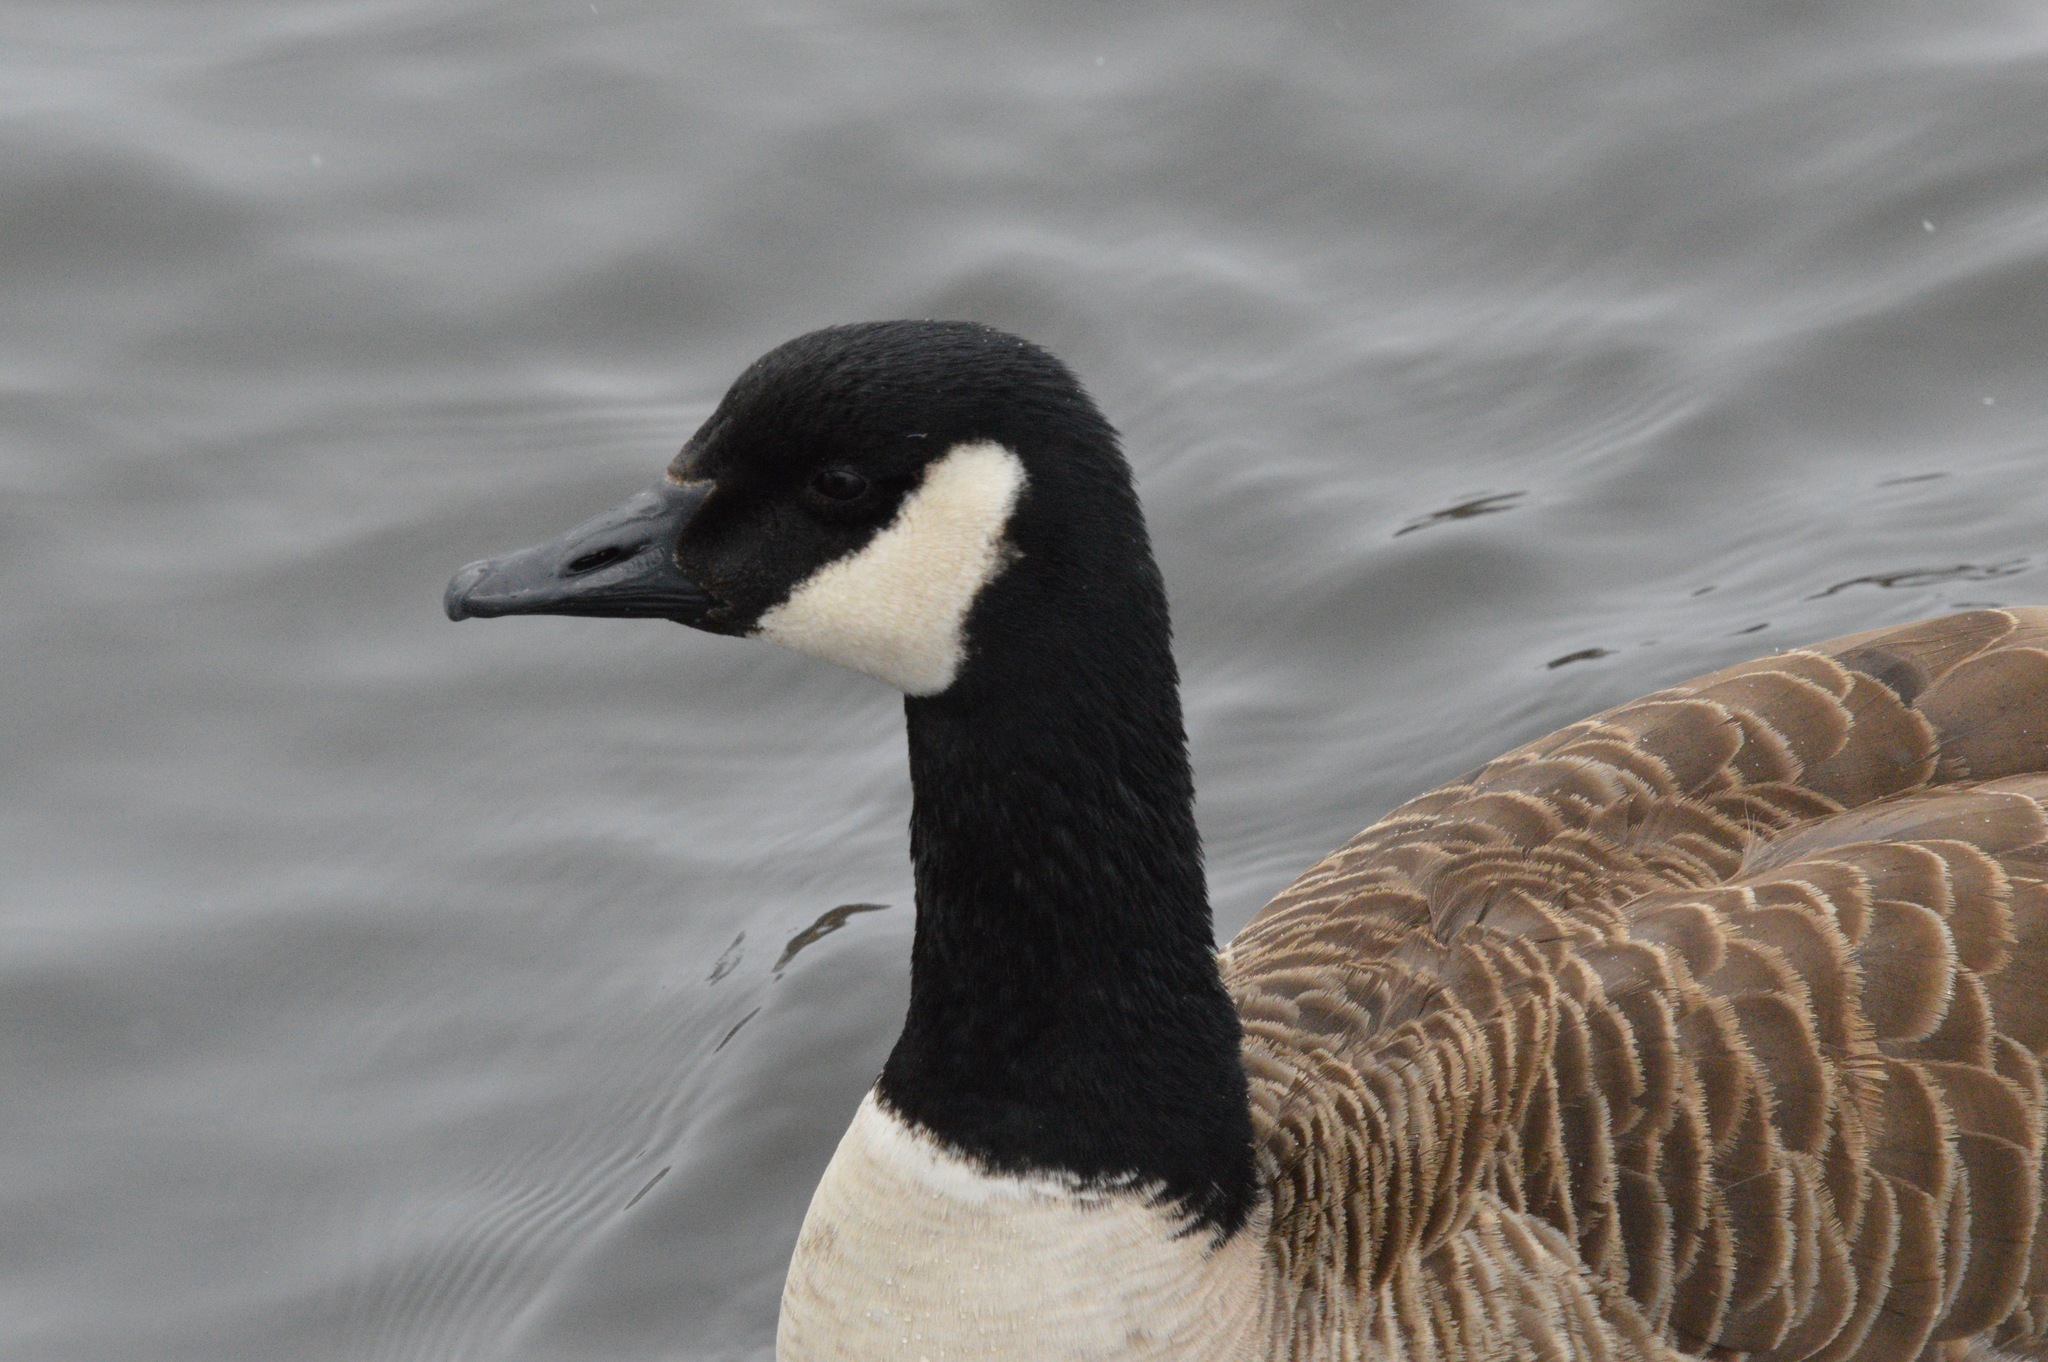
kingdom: Animalia
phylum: Chordata
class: Aves
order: Anseriformes
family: Anatidae
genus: Branta
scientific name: Branta canadensis
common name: Canada goose
